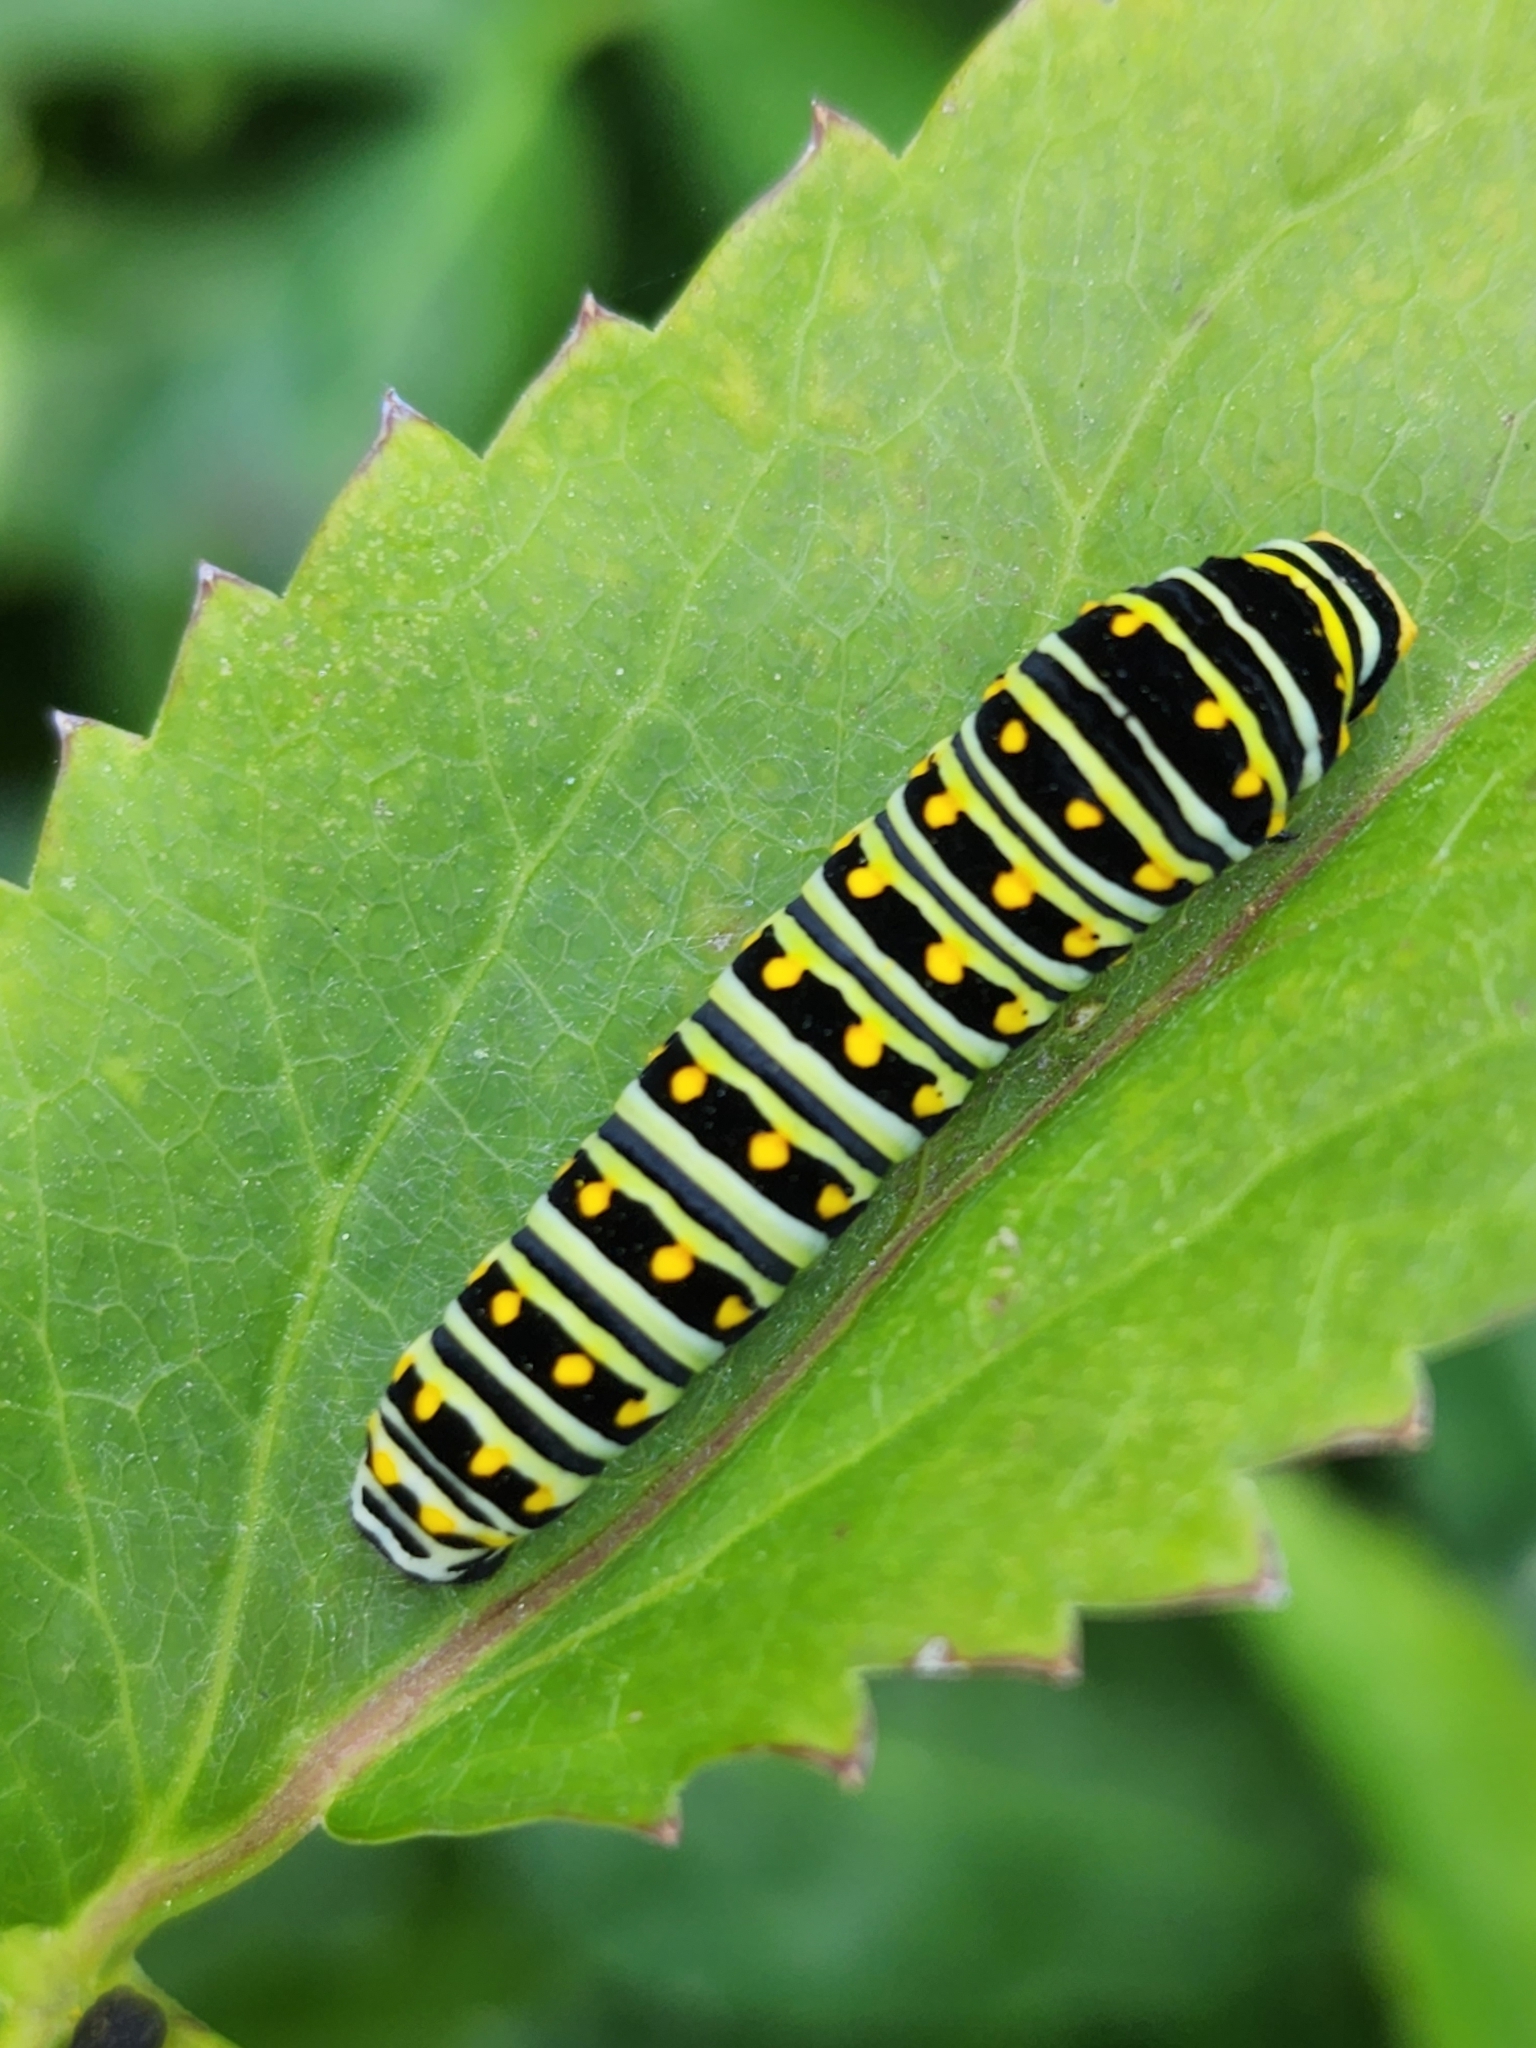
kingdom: Animalia
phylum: Arthropoda
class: Insecta
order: Lepidoptera
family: Papilionidae
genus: Papilio
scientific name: Papilio polyxenes
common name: Black swallowtail
